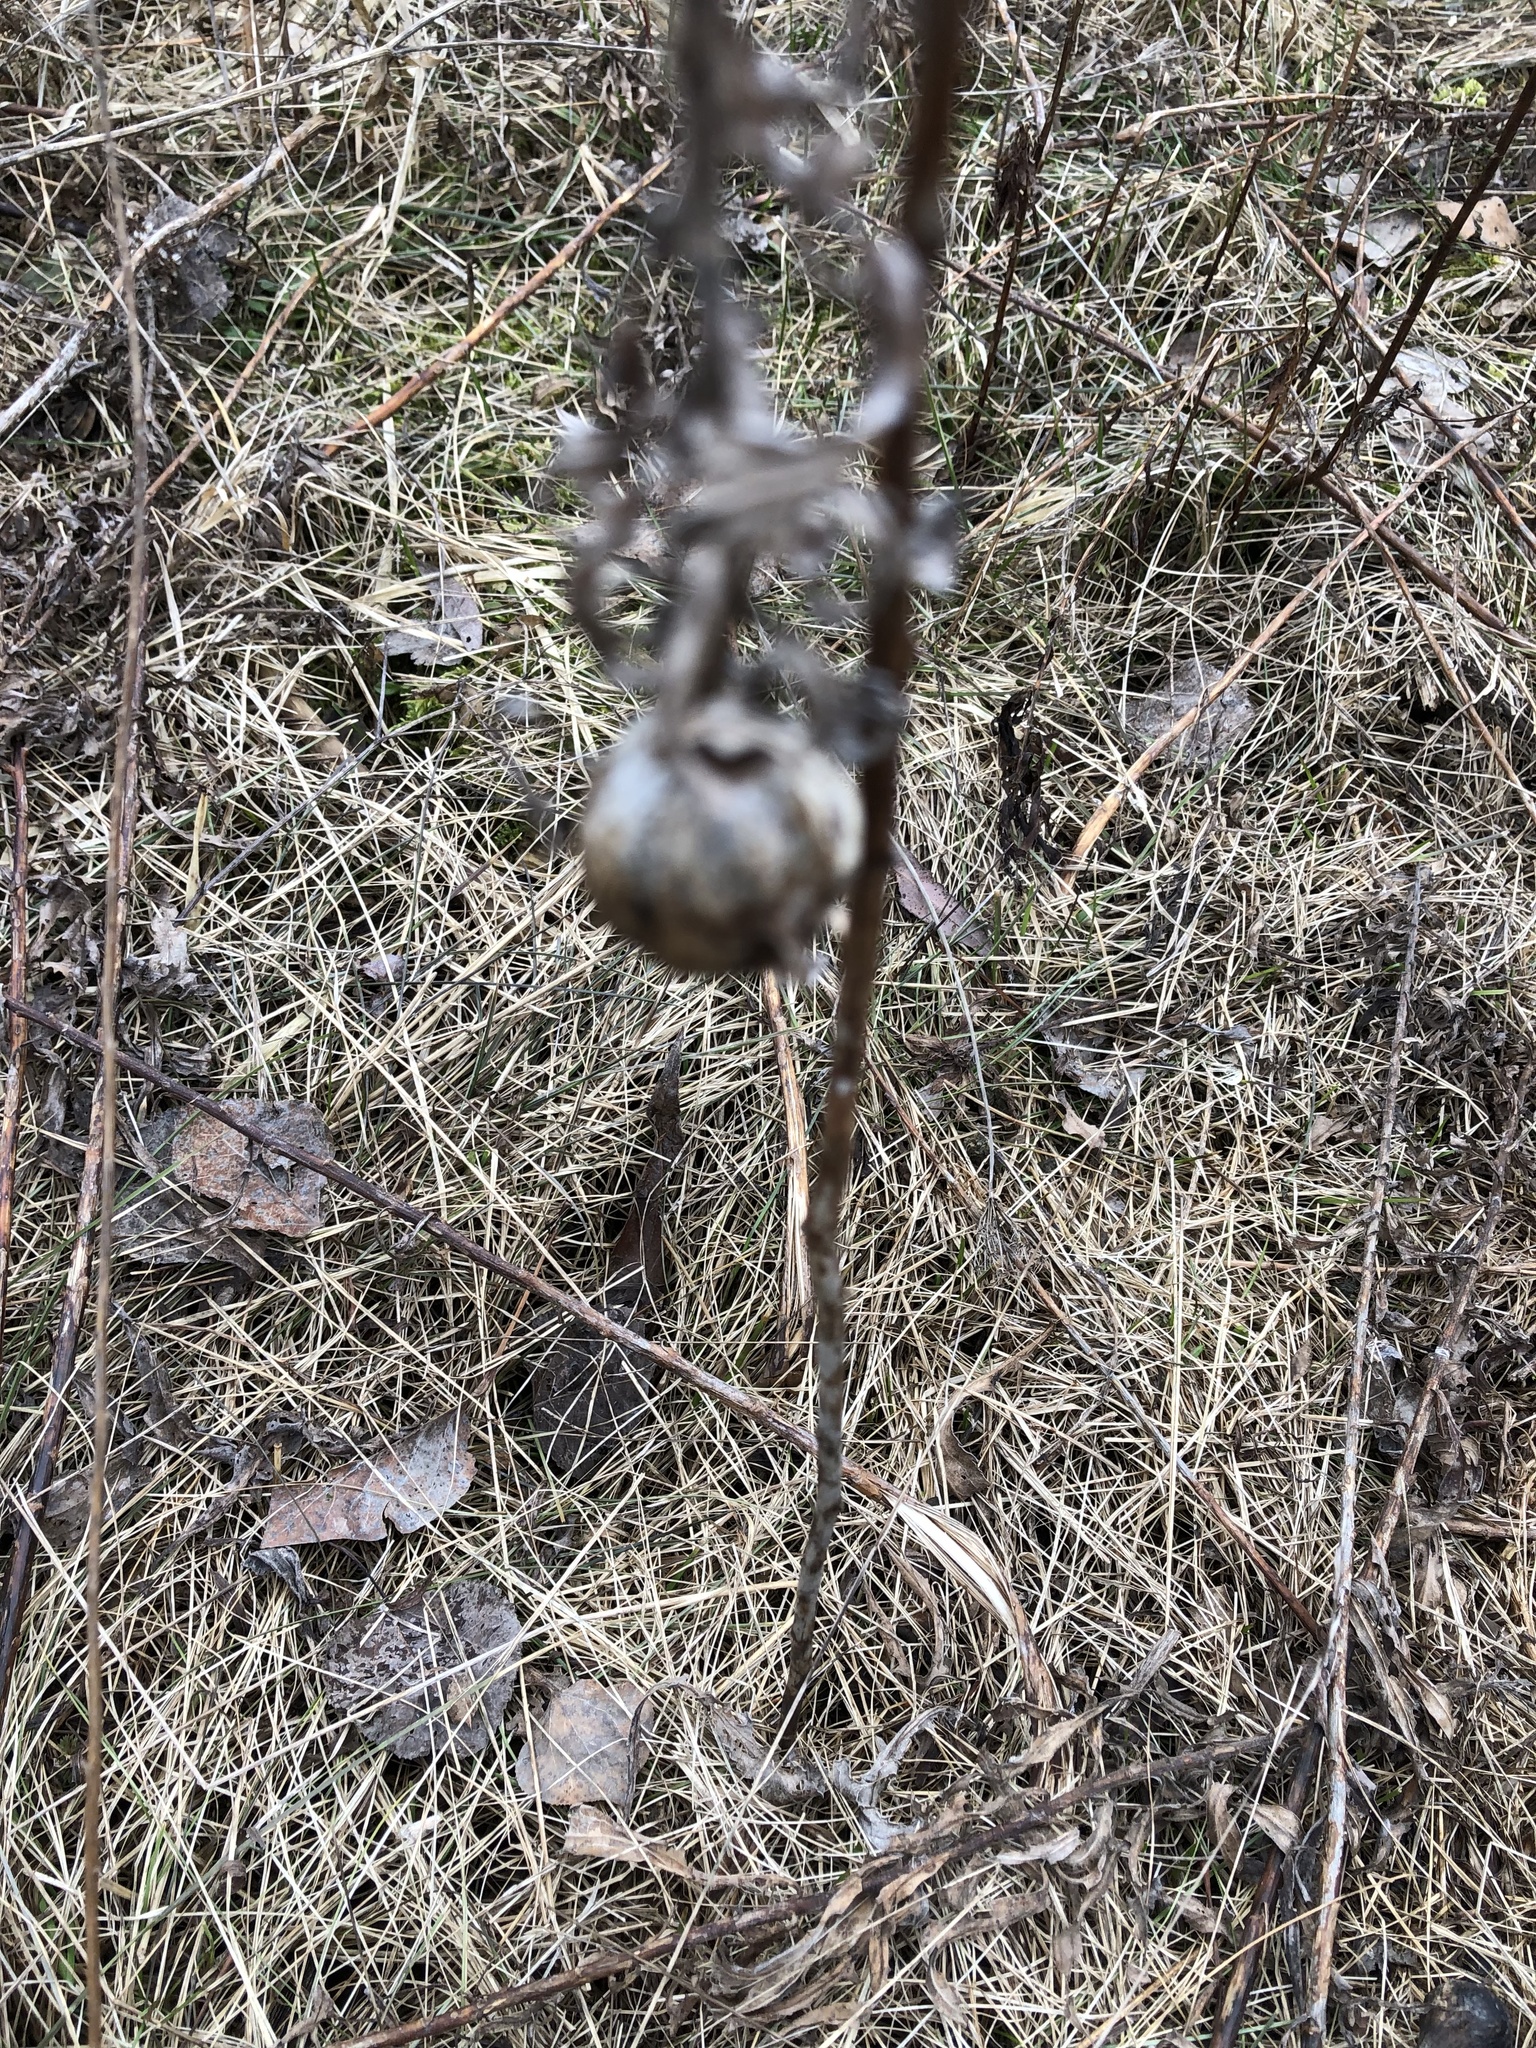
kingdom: Animalia
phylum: Arthropoda
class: Insecta
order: Diptera
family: Tephritidae
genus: Eurosta
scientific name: Eurosta solidaginis
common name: Goldenrod gall fly
